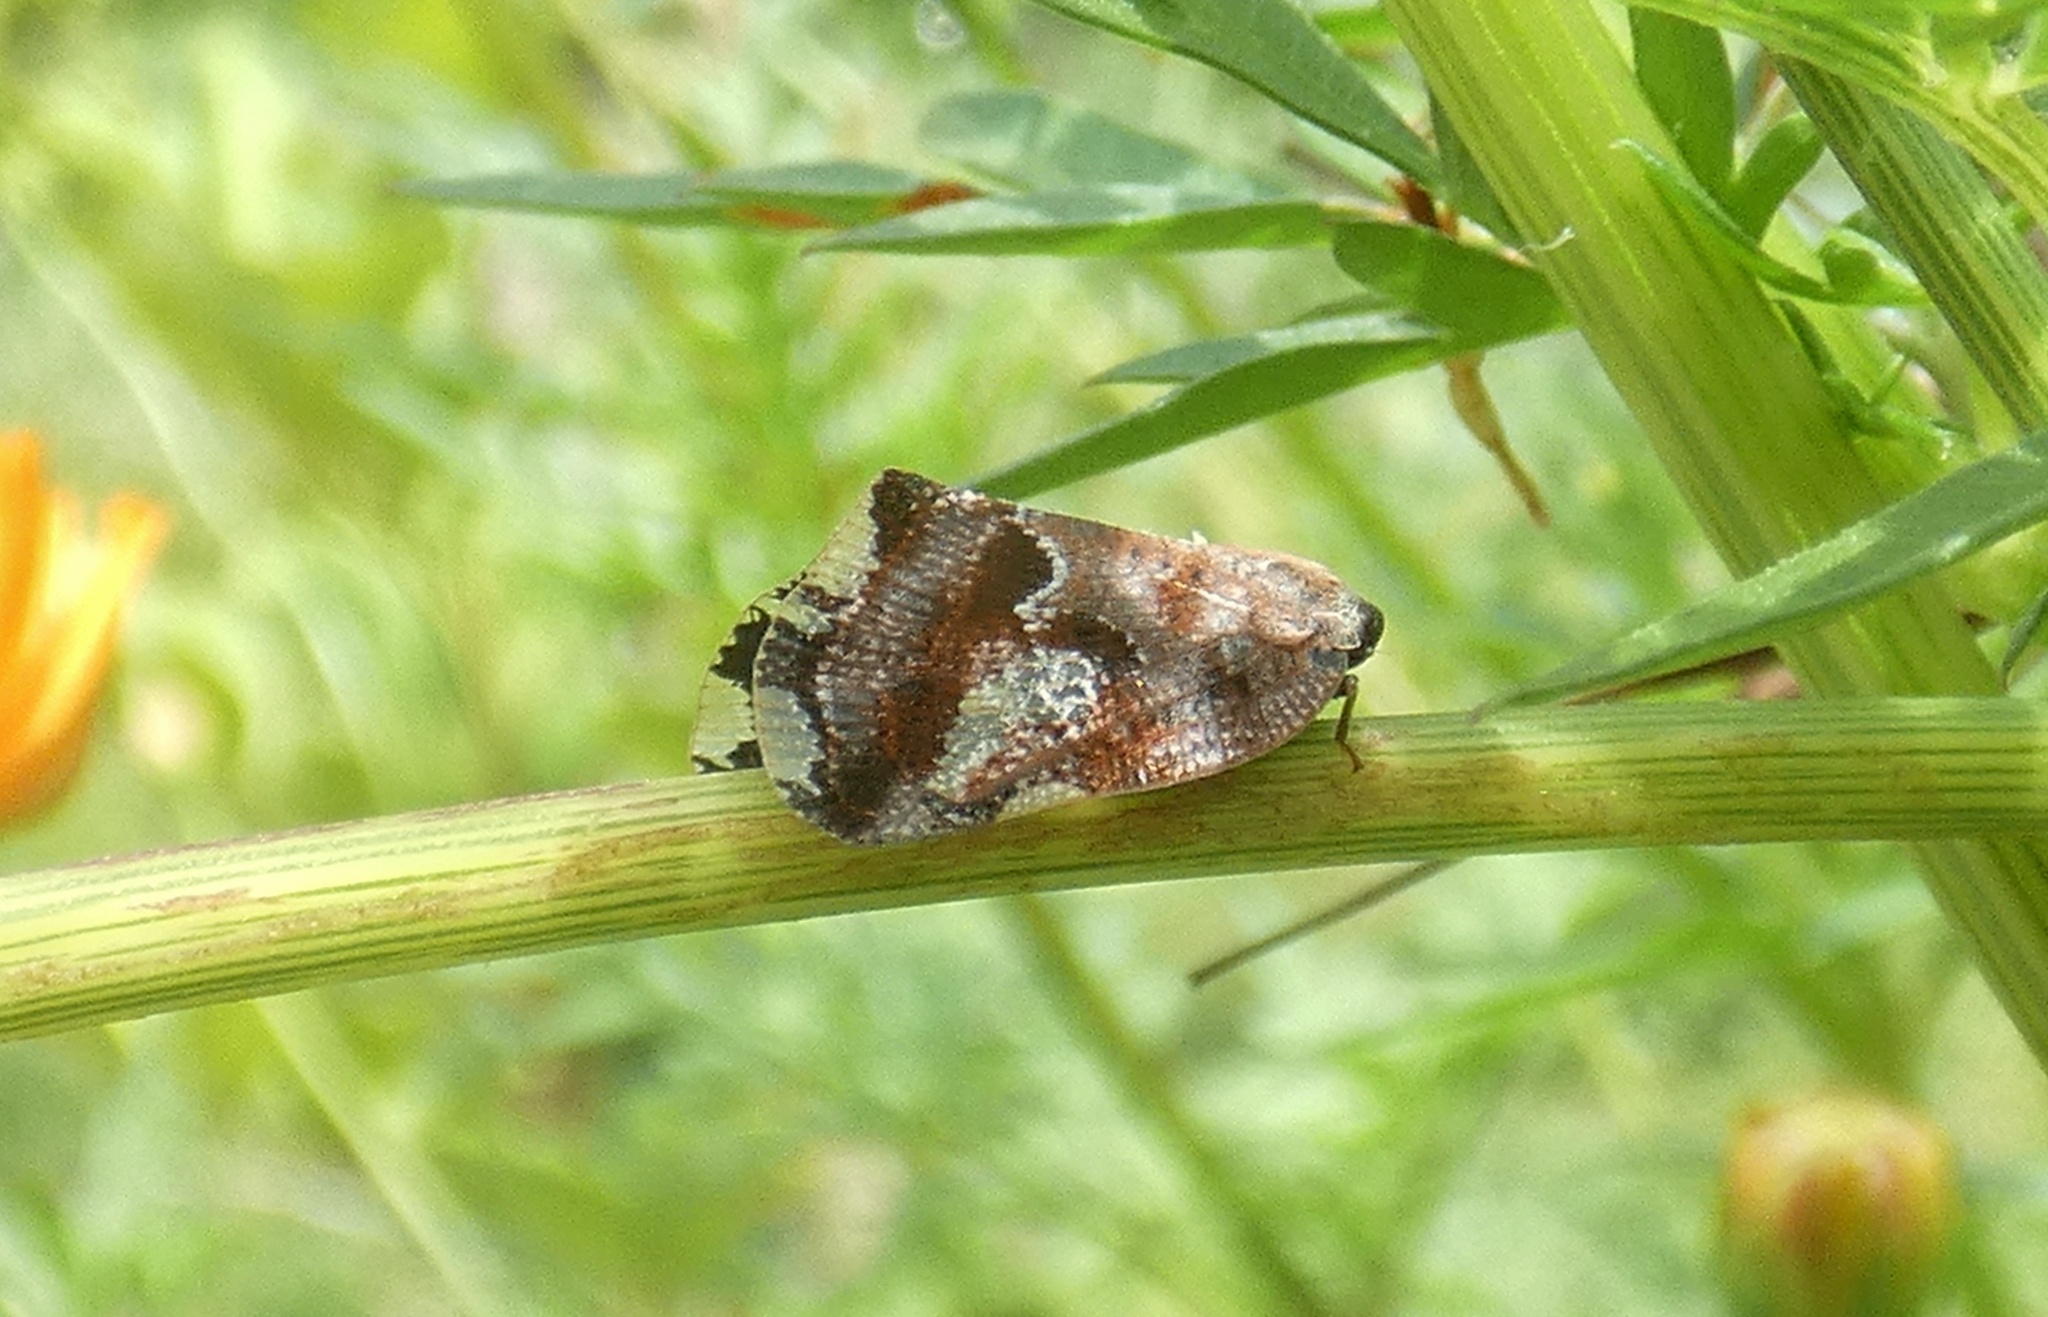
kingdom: Animalia
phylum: Arthropoda
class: Insecta
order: Hemiptera
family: Ricaniidae
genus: Ricania
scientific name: Ricania speculum
